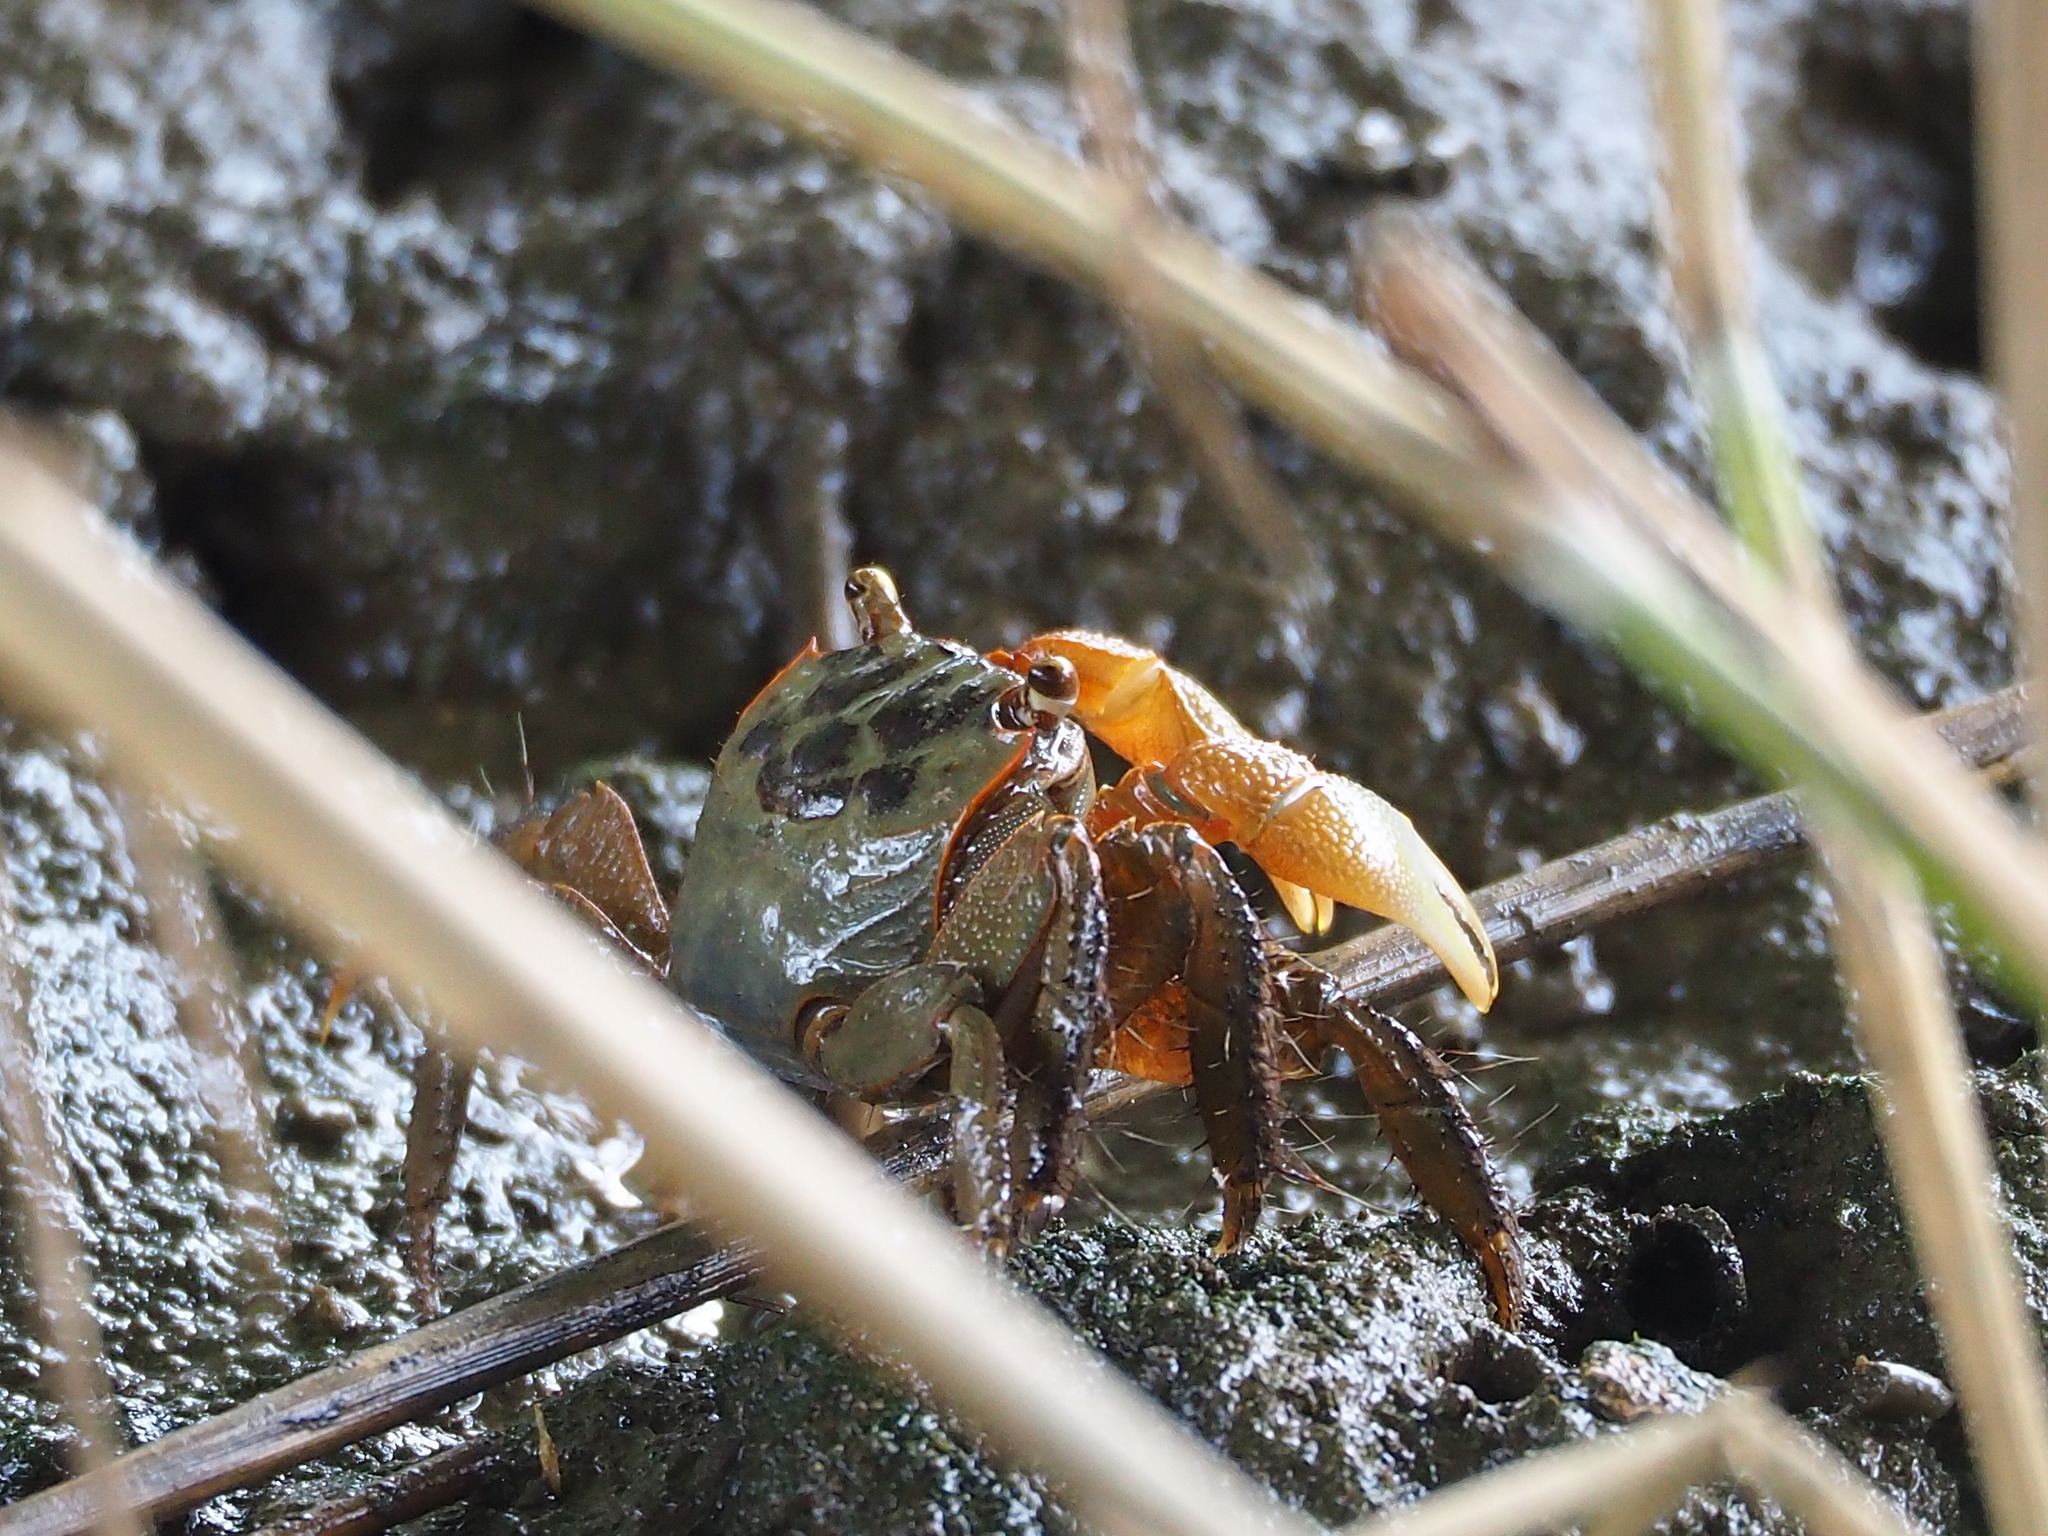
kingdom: Animalia
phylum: Arthropoda
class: Malacostraca
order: Decapoda
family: Sesarmidae
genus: Orisarma
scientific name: Orisarma dehaani
